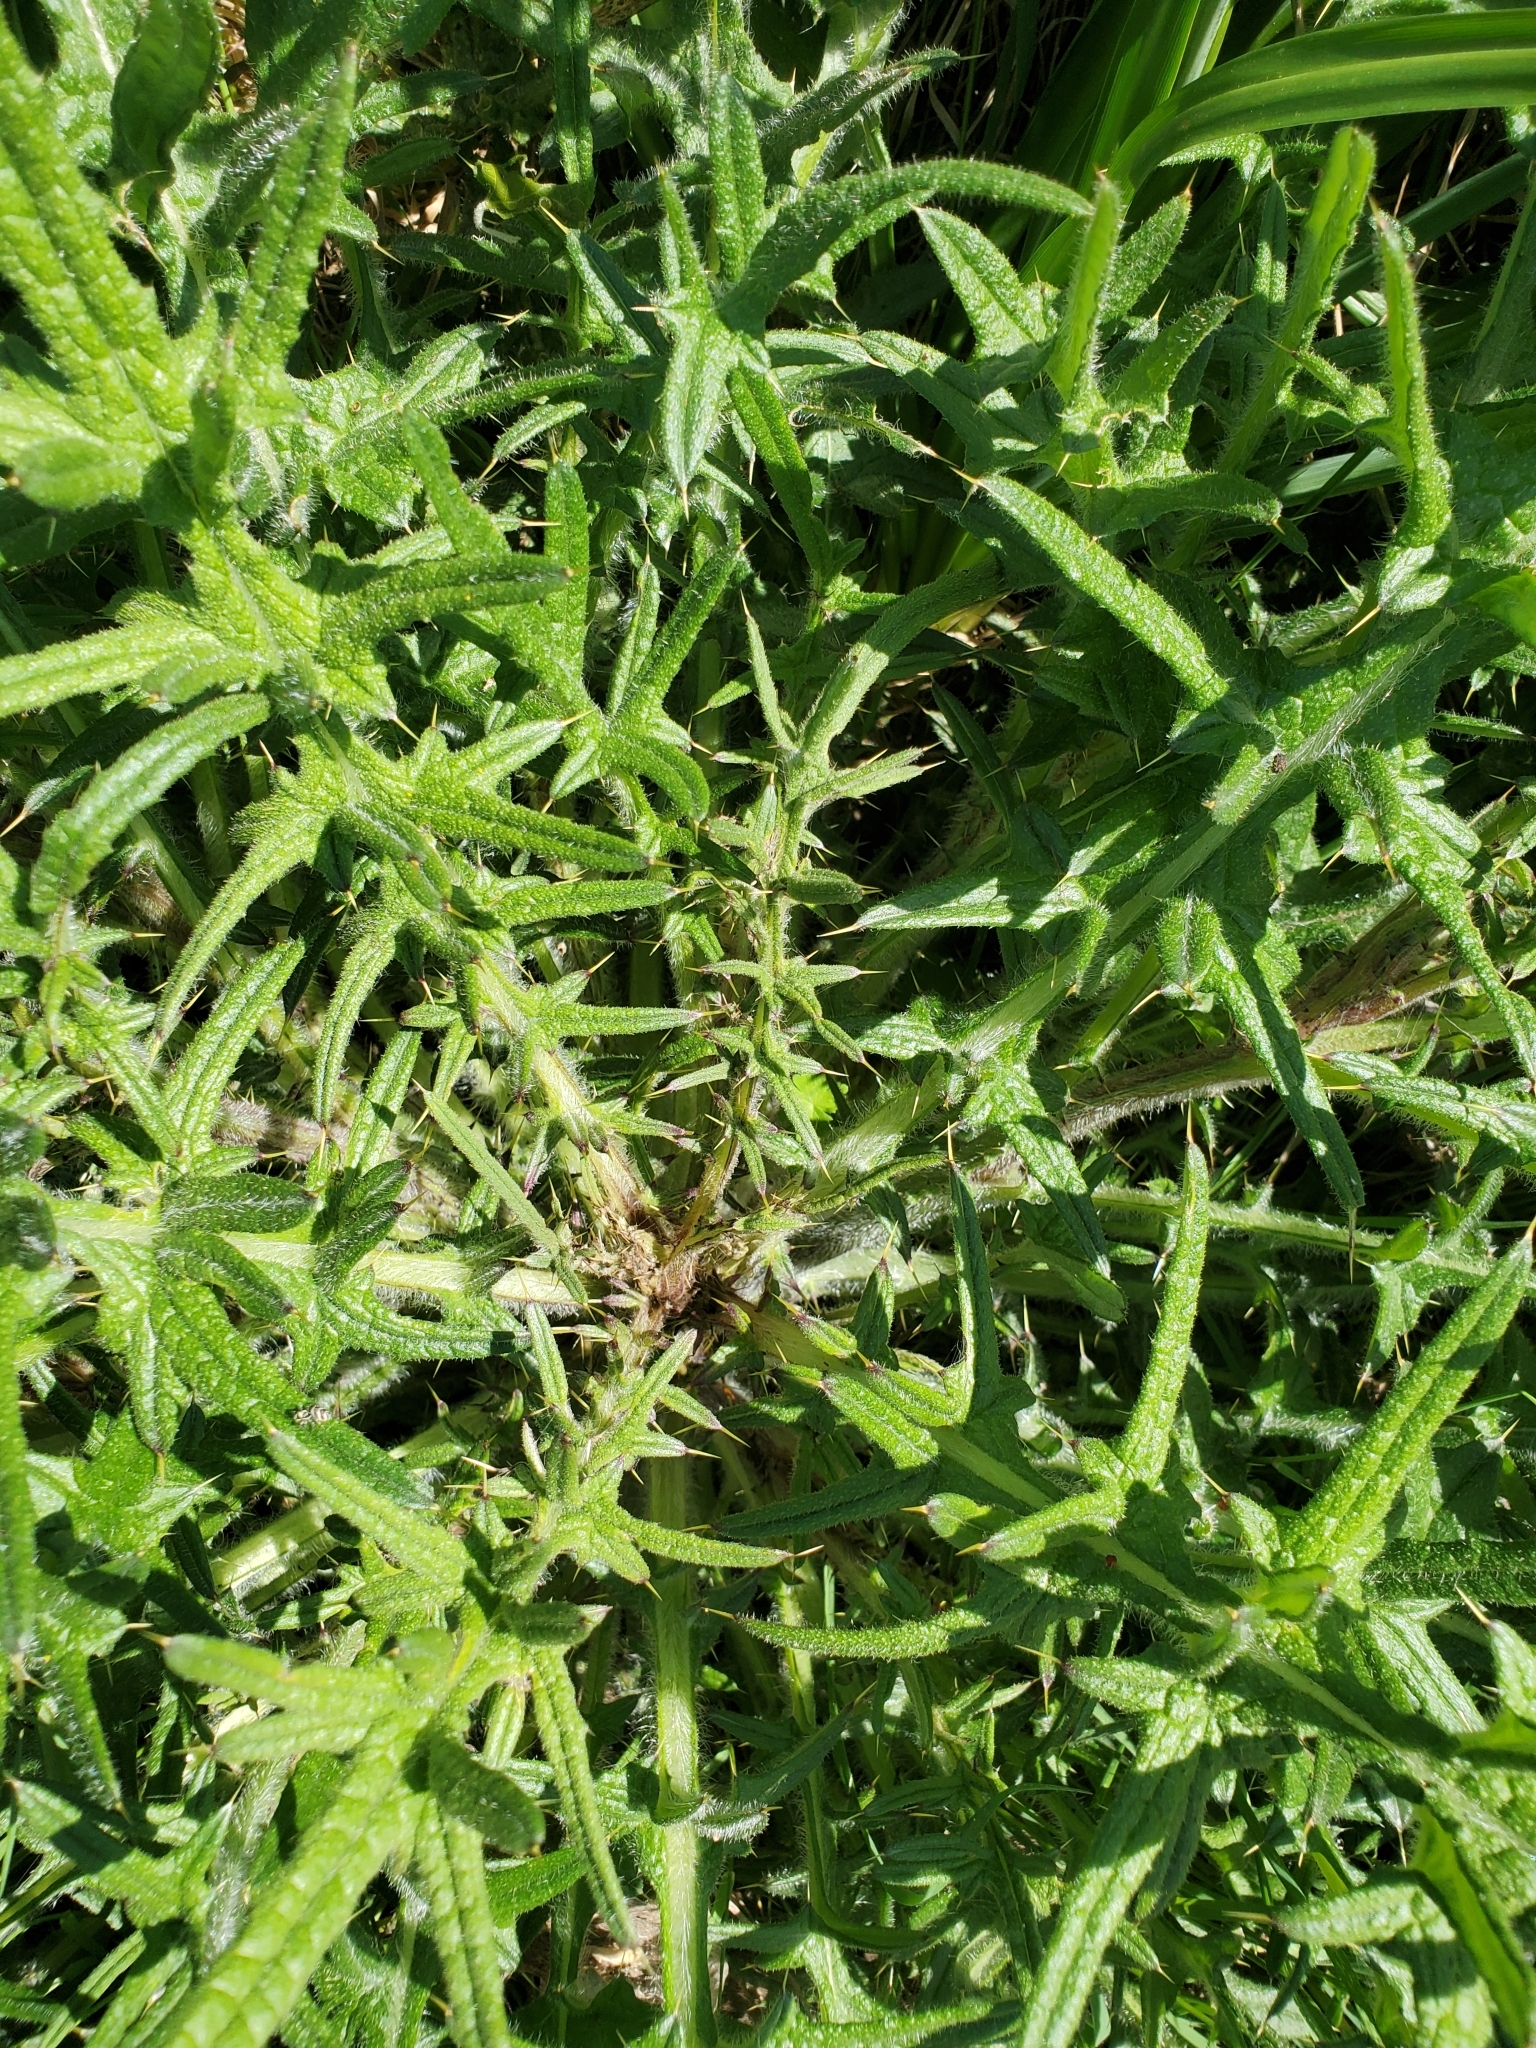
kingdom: Plantae
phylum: Tracheophyta
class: Magnoliopsida
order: Asterales
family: Asteraceae
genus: Cirsium
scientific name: Cirsium vulgare
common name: Bull thistle
